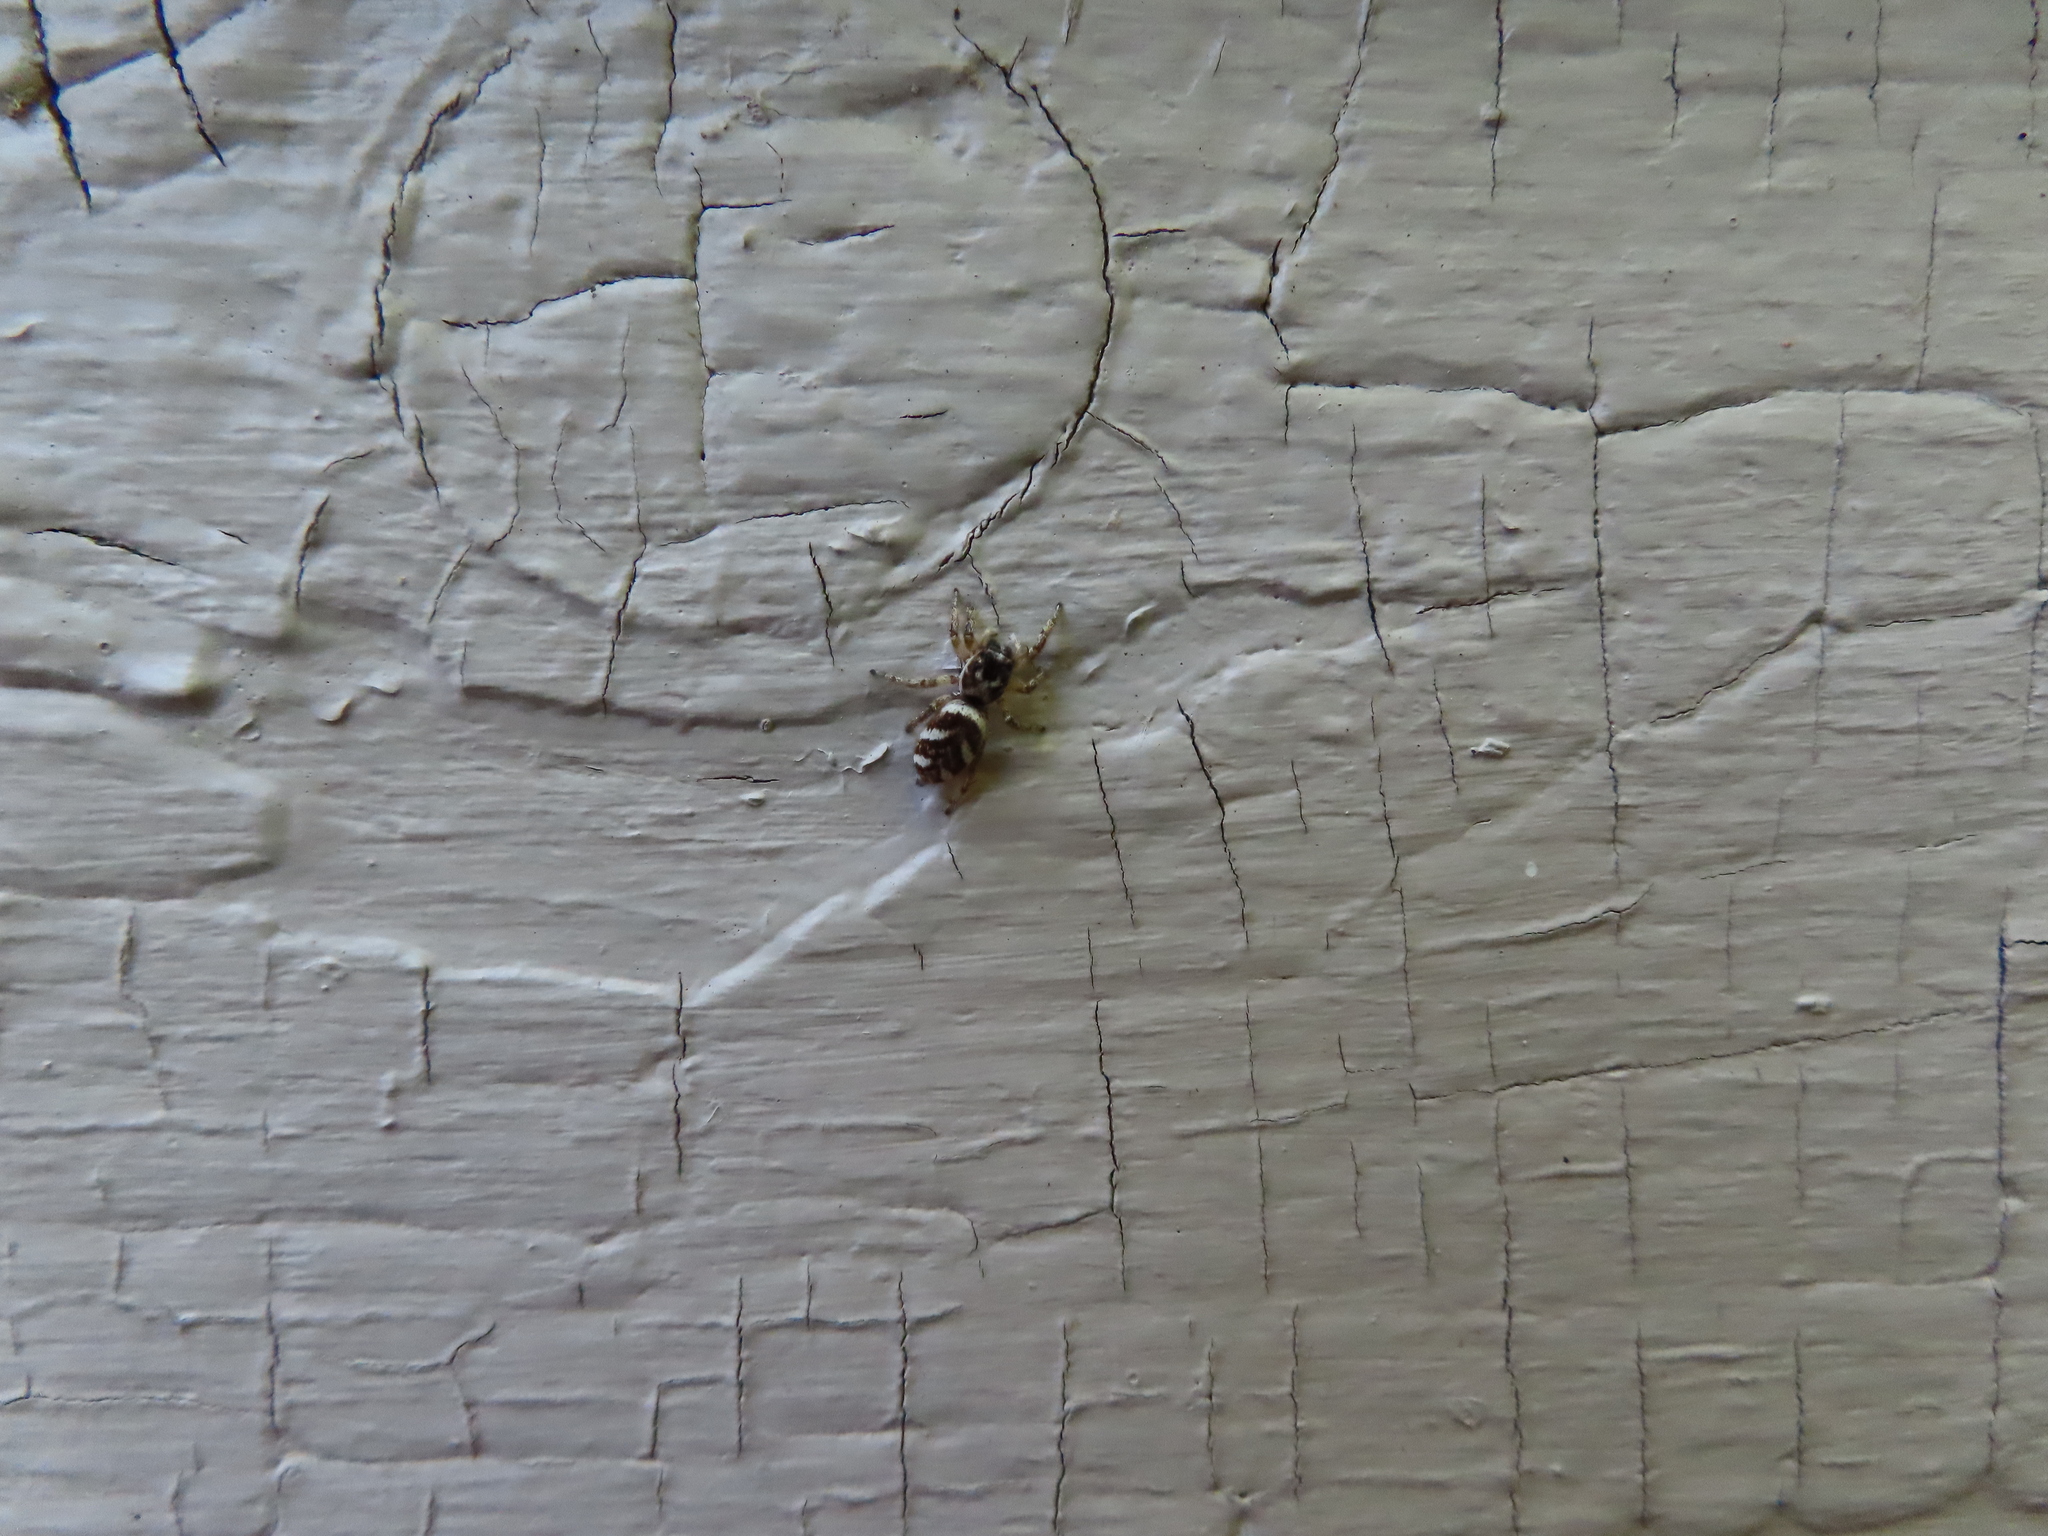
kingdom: Animalia
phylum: Arthropoda
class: Arachnida
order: Araneae
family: Salticidae
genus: Salticus
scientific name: Salticus scenicus
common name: Zebra jumper
